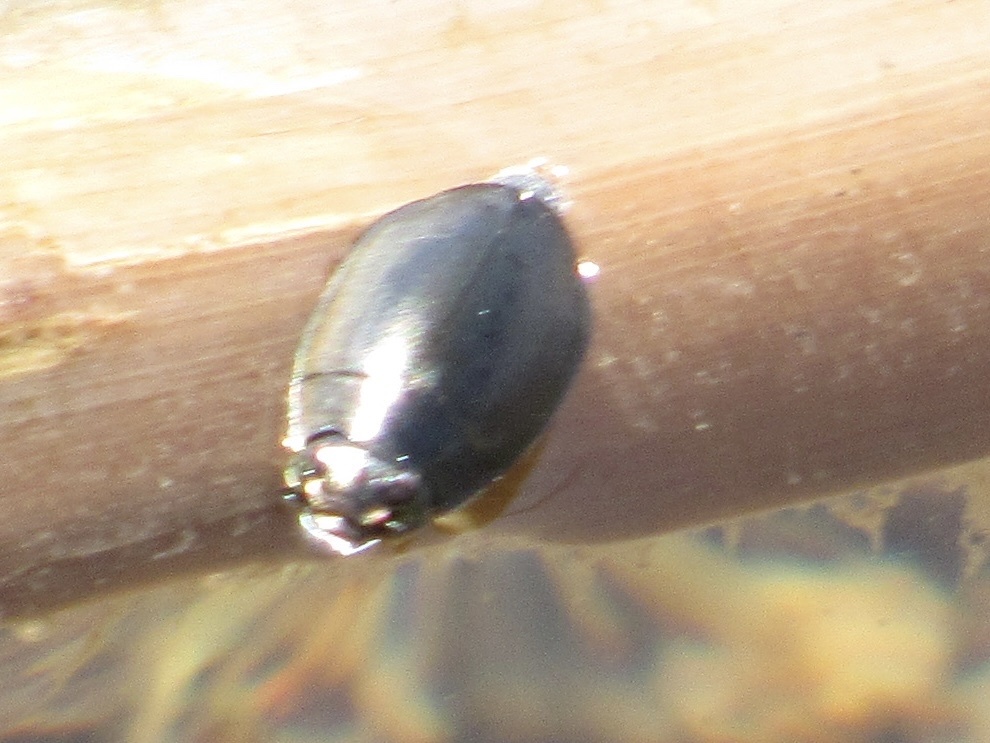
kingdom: Animalia
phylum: Arthropoda
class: Insecta
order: Coleoptera
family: Gyrinidae
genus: Dineutus
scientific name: Dineutus
